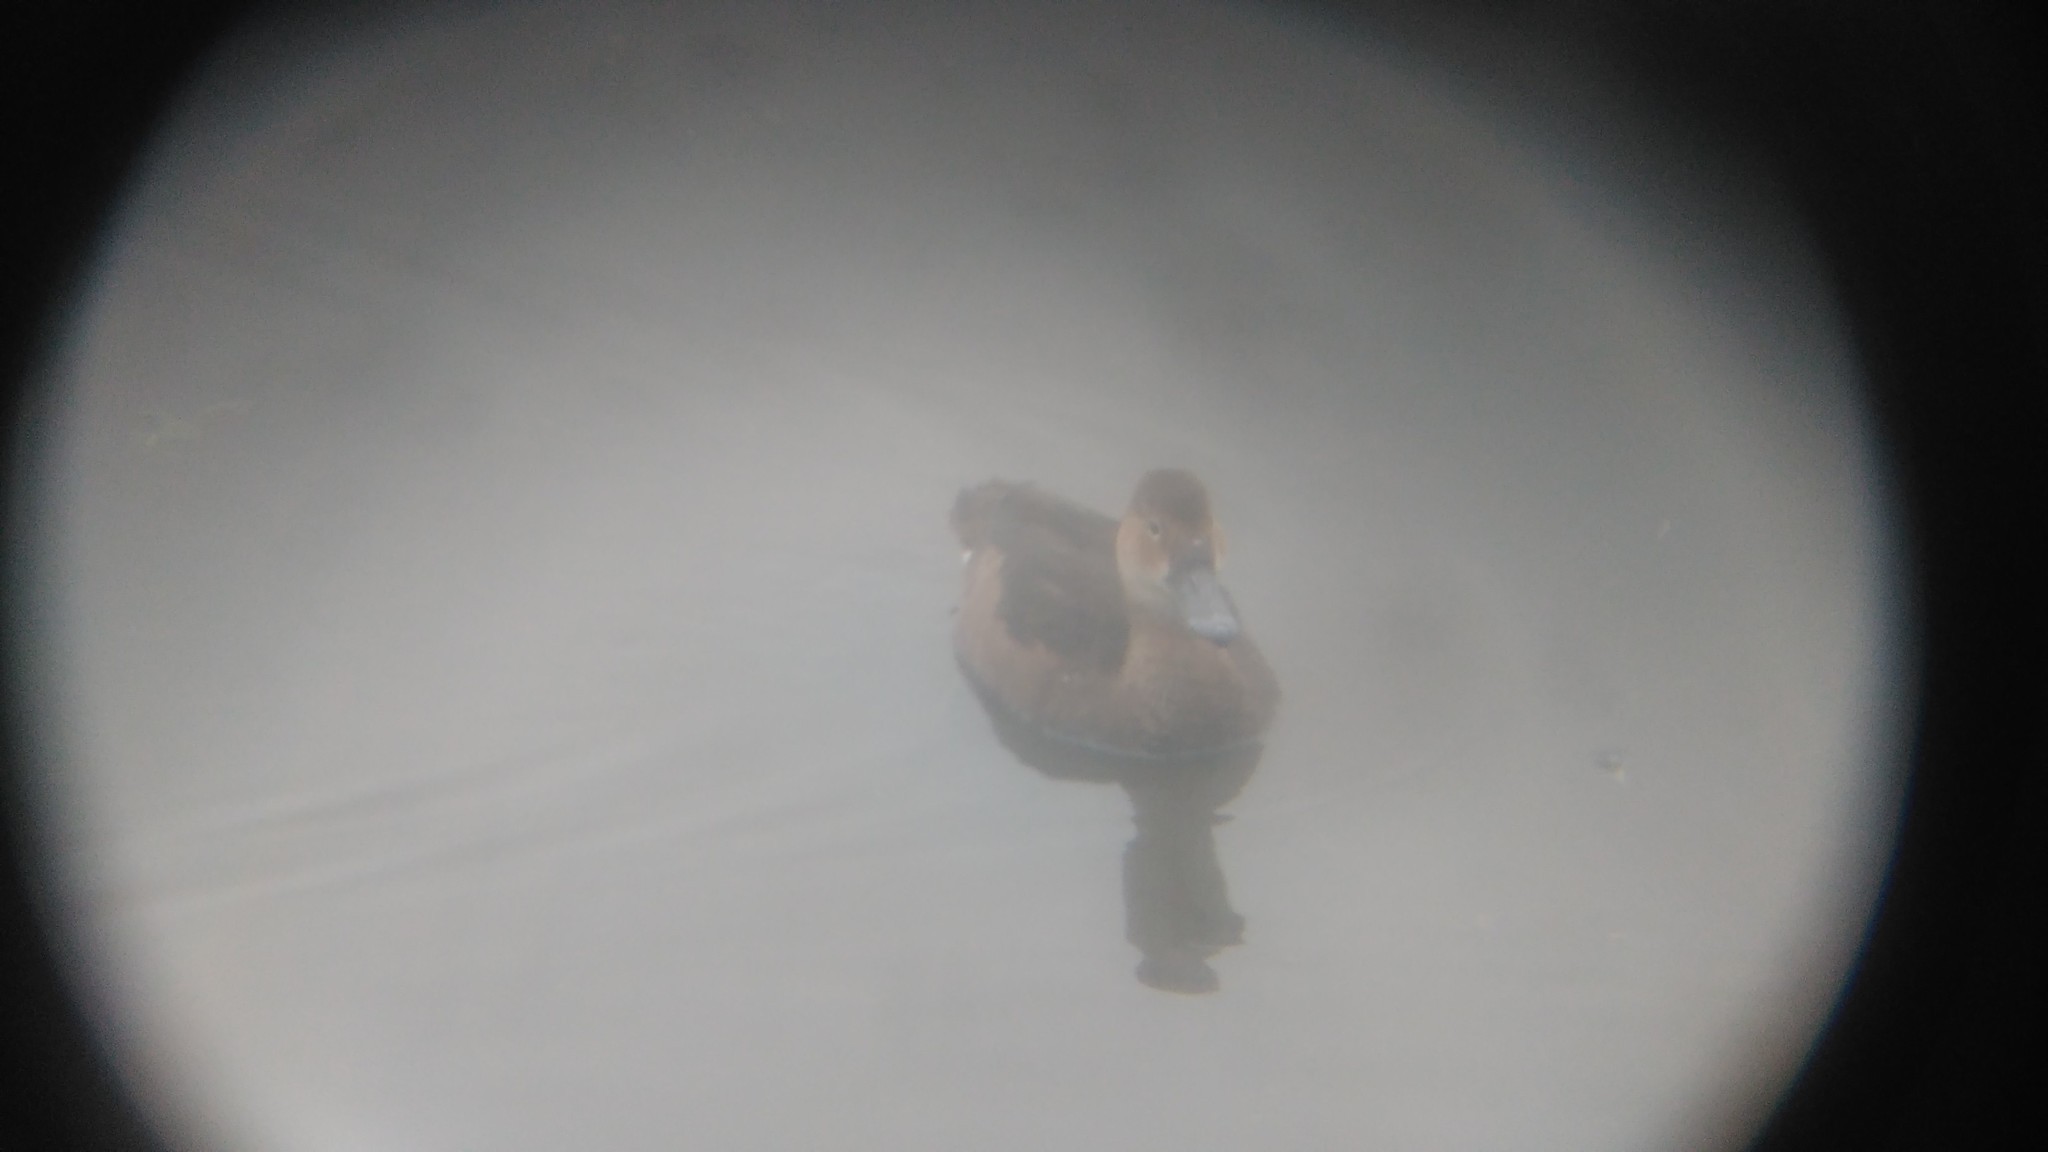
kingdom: Animalia
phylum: Chordata
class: Aves
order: Anseriformes
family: Anatidae
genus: Netta
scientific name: Netta peposaca
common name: Rosy-billed pochard
